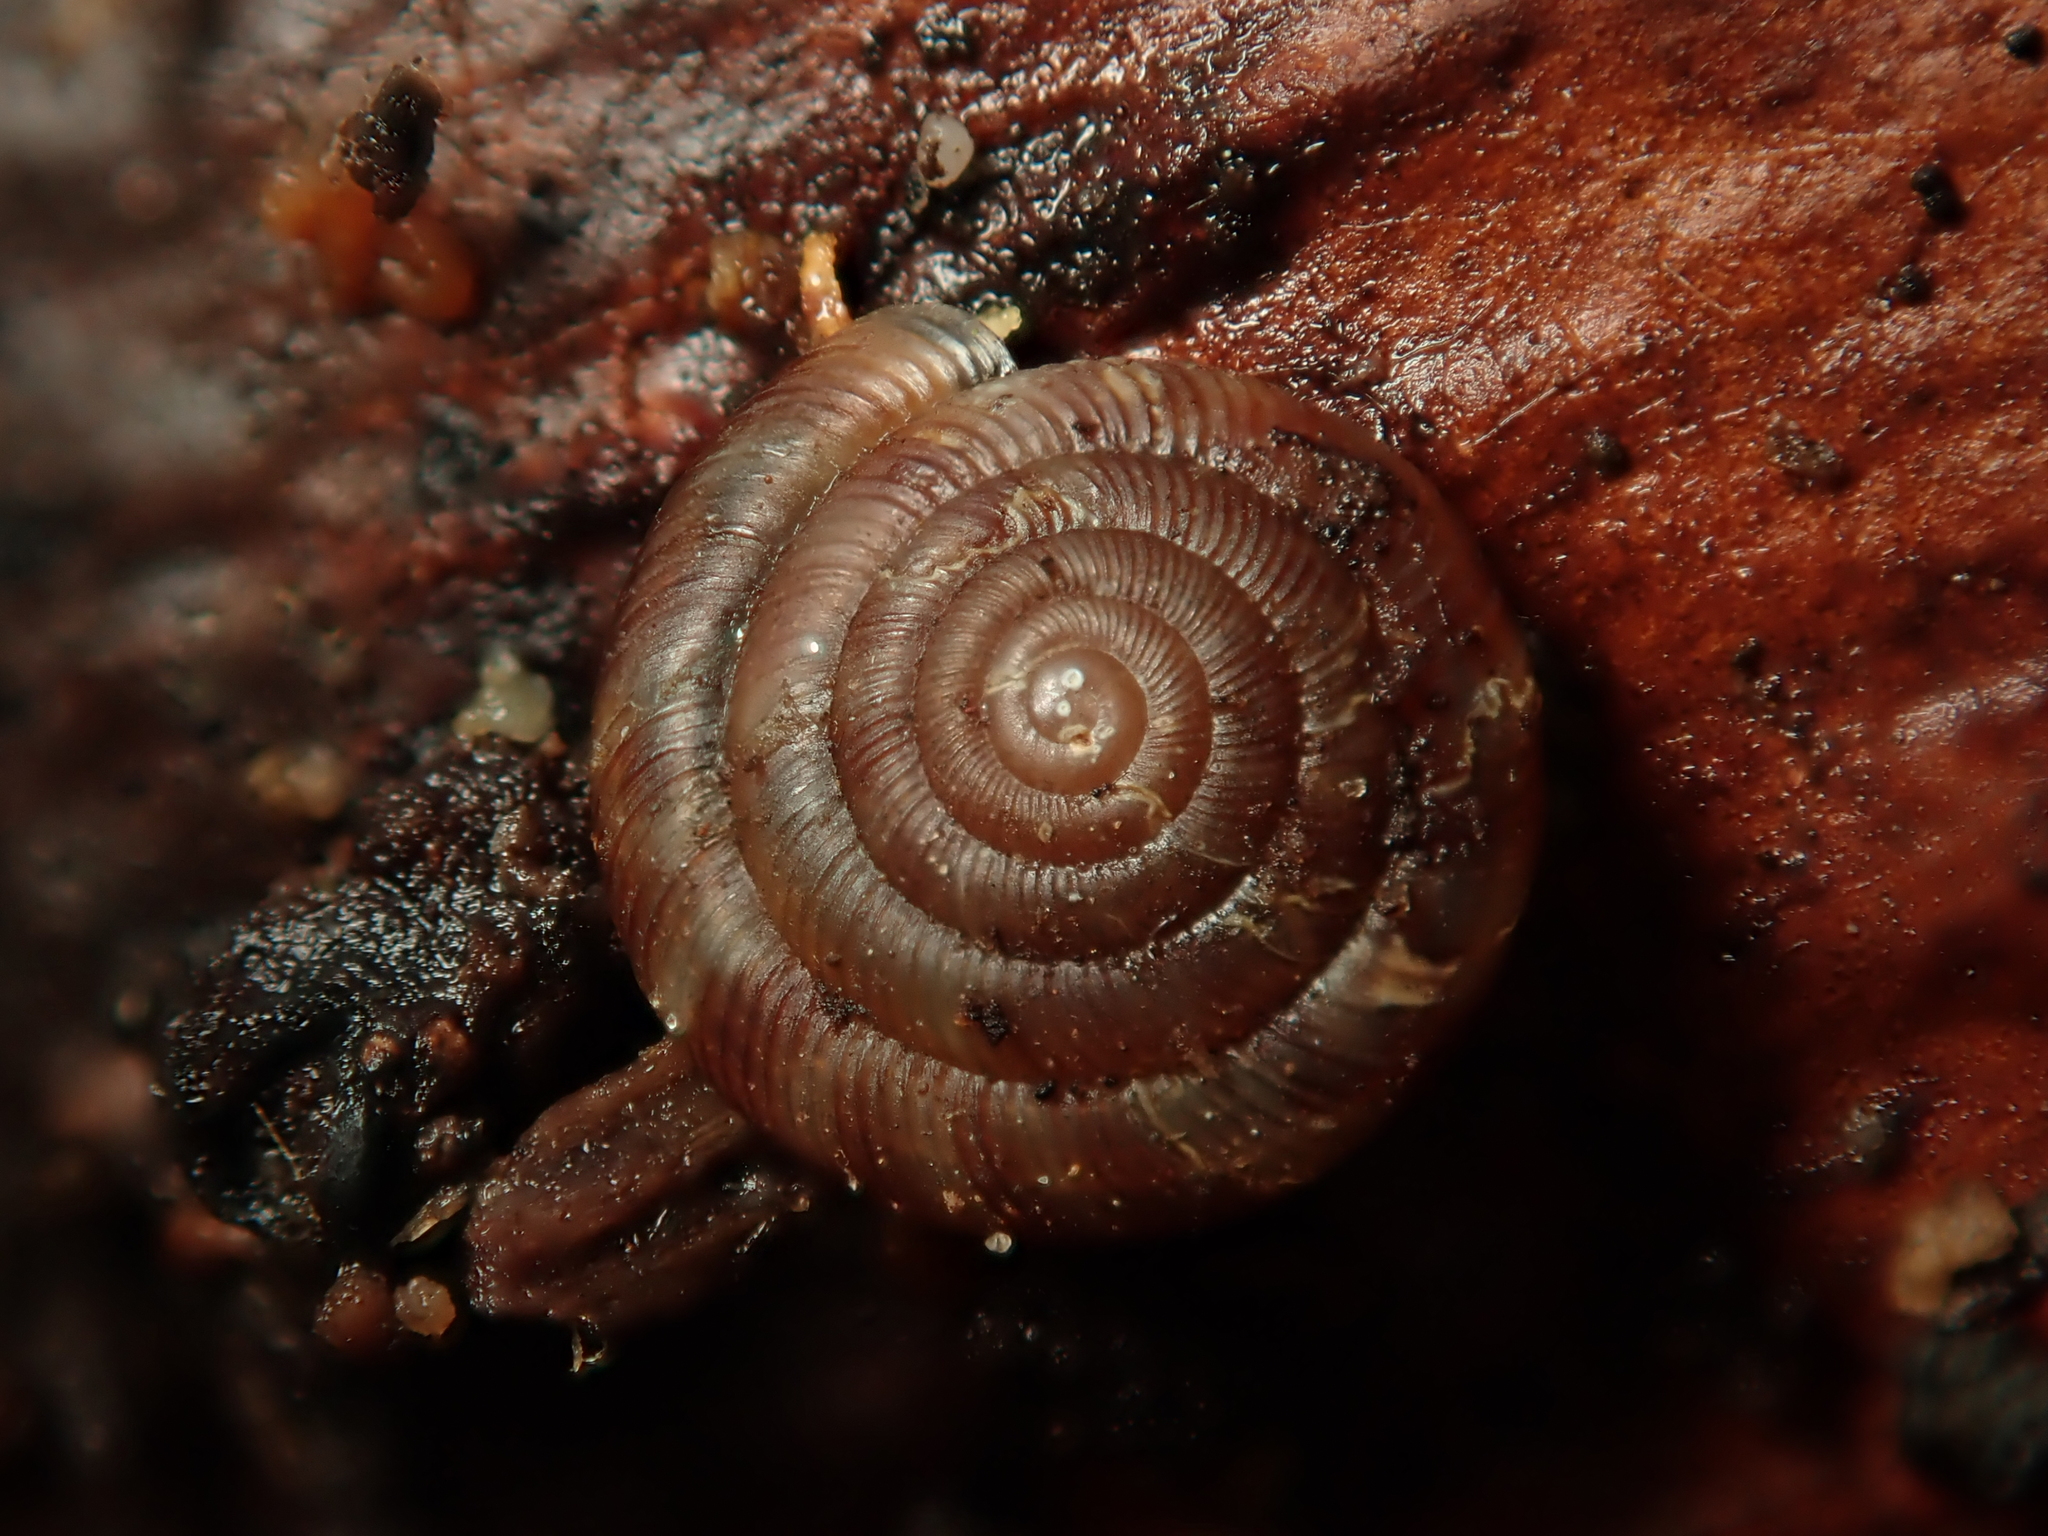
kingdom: Animalia
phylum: Mollusca
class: Gastropoda
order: Stylommatophora
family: Discidae
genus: Discus
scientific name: Discus rotundatus
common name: Rounded snail
